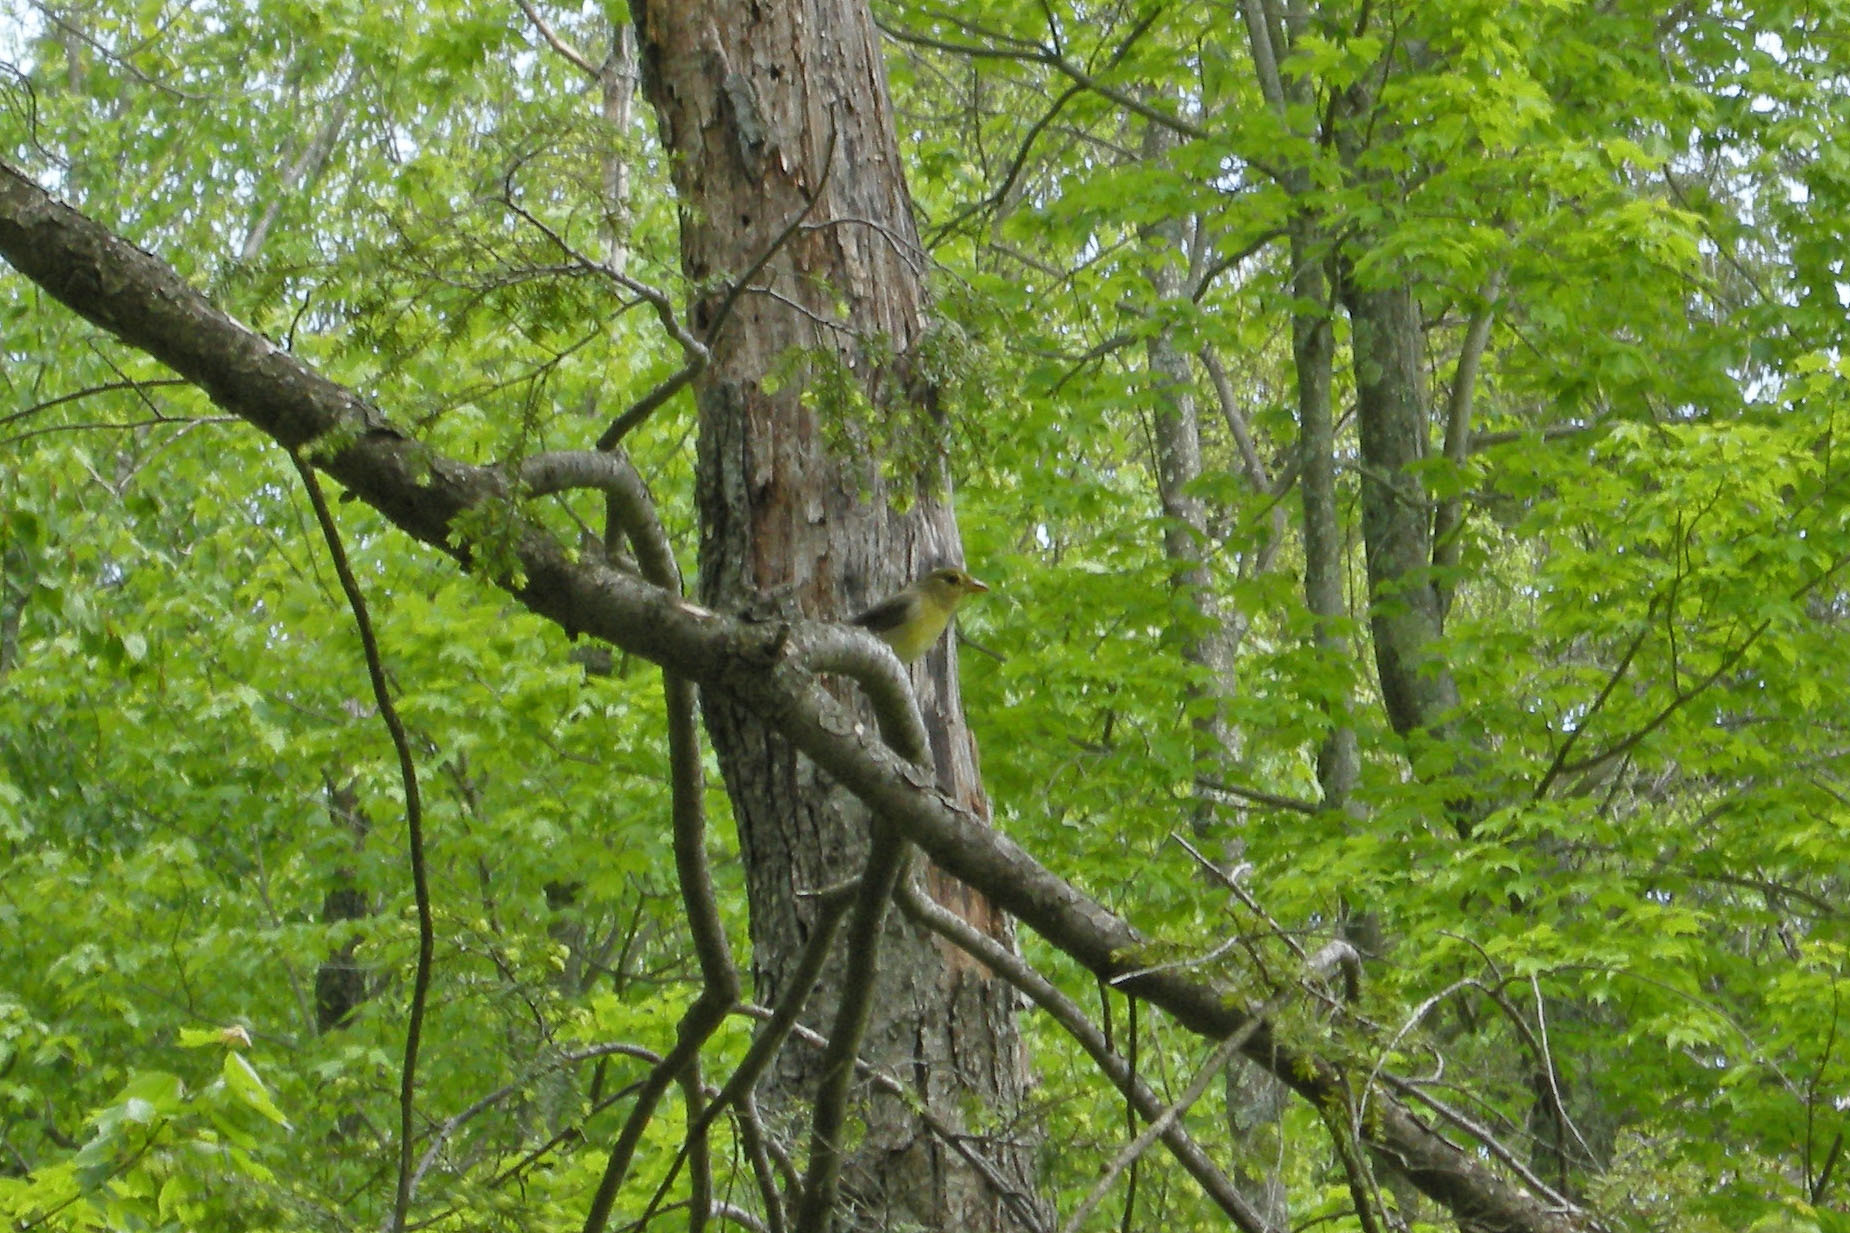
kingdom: Animalia
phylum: Chordata
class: Aves
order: Passeriformes
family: Cardinalidae
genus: Piranga
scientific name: Piranga olivacea
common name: Scarlet tanager
